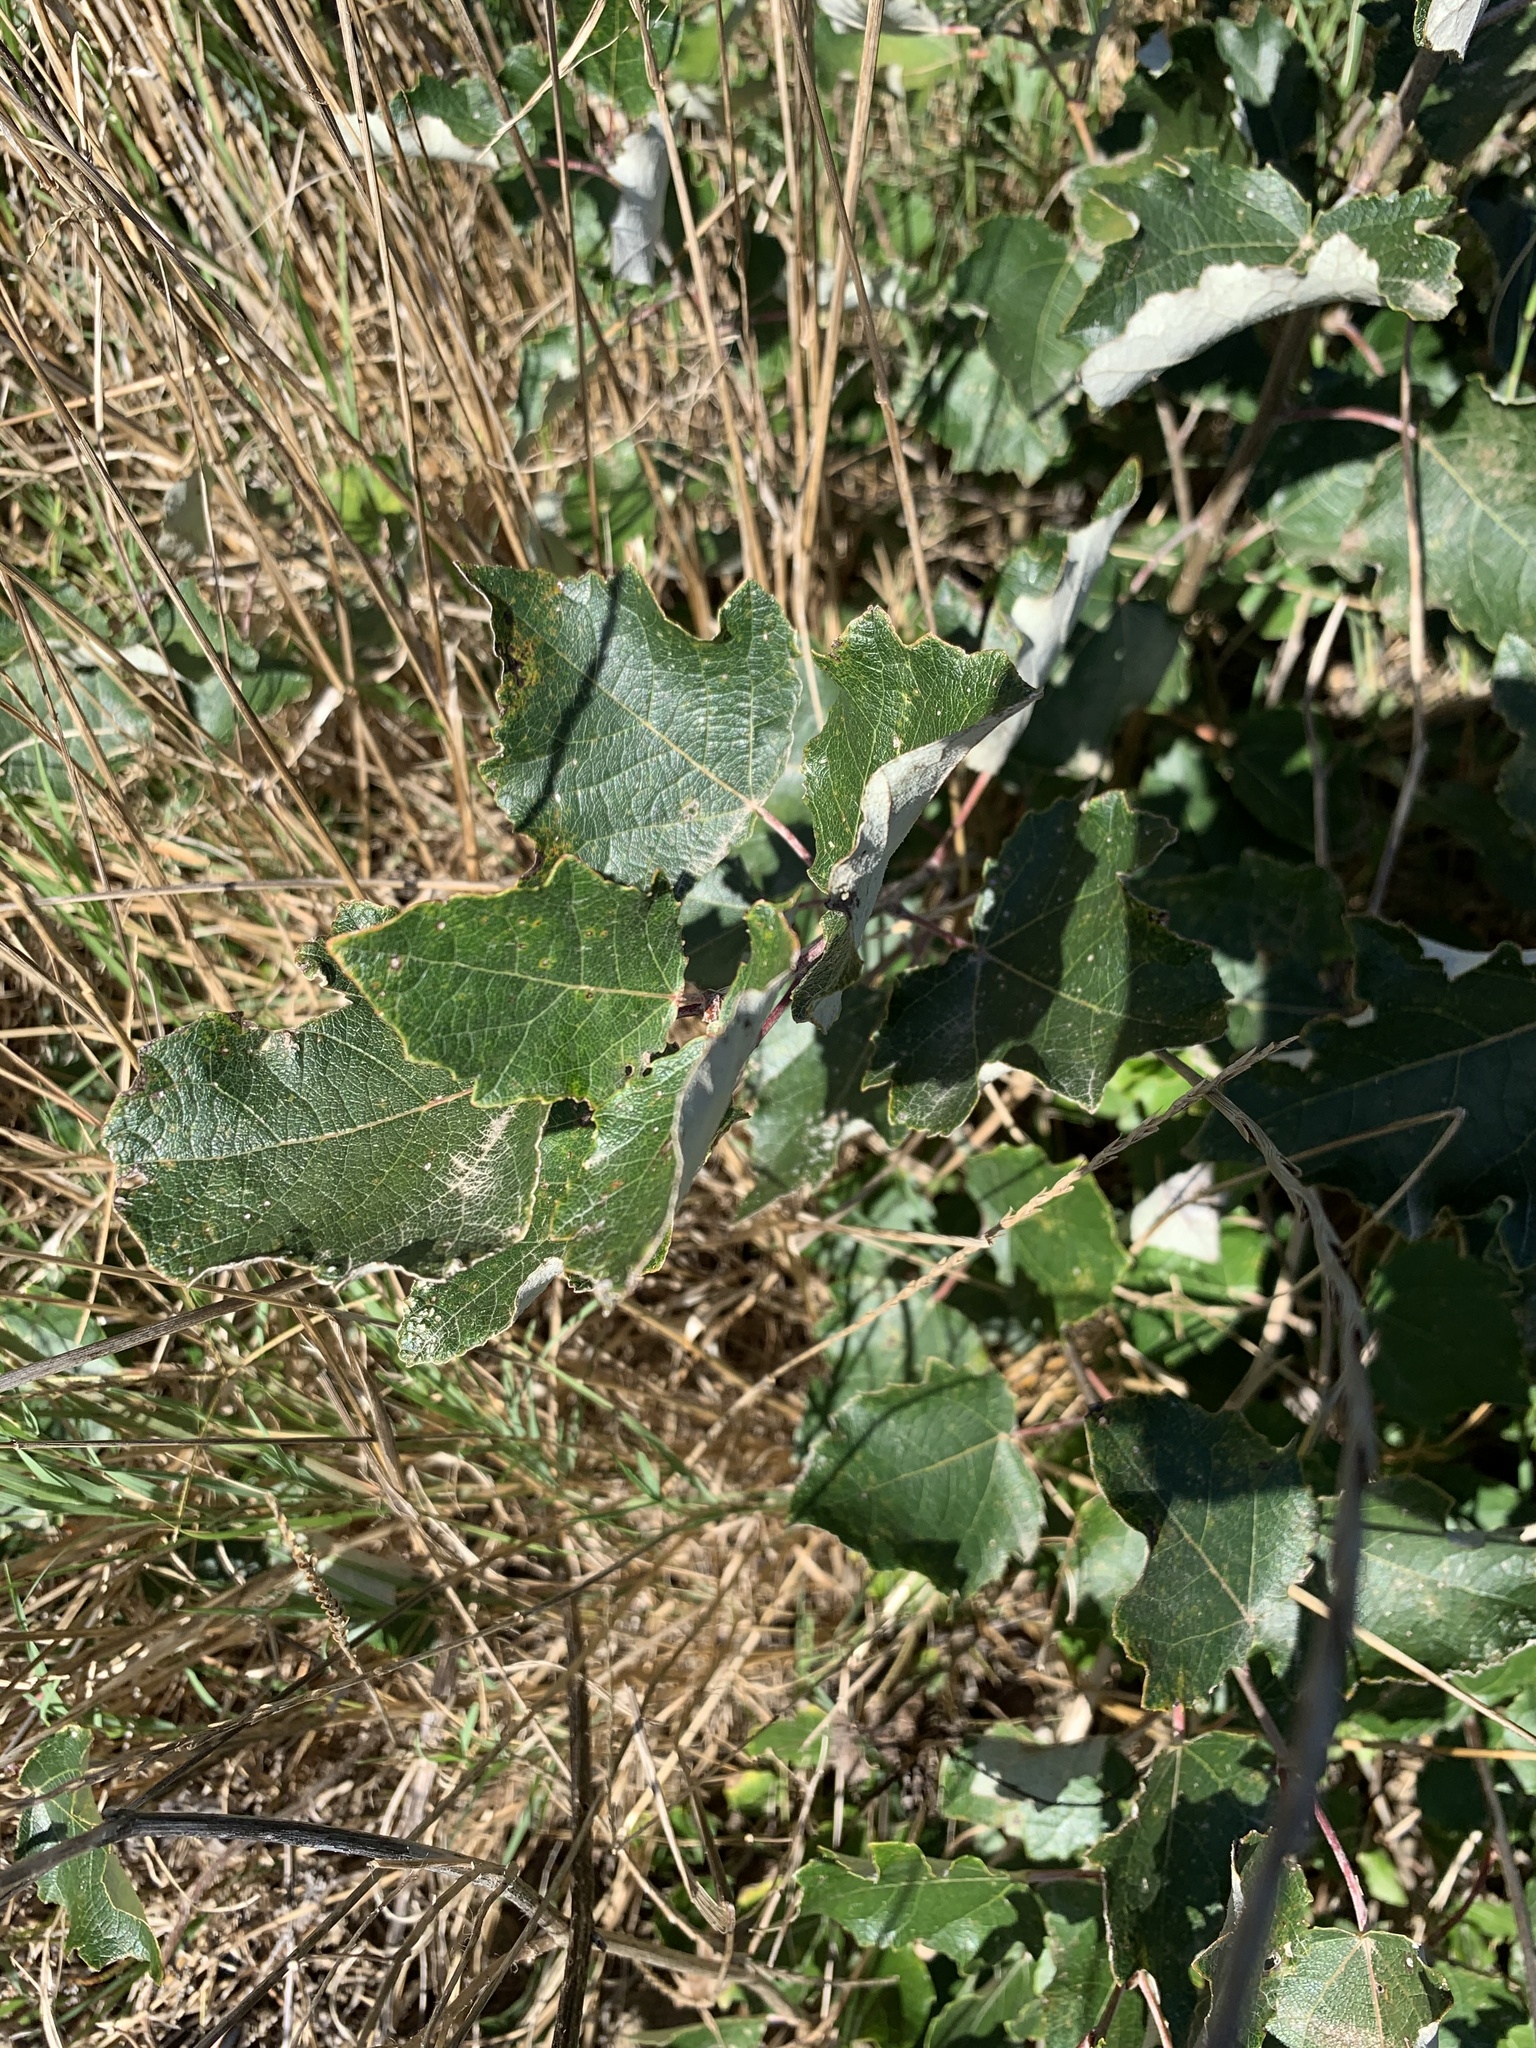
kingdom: Plantae
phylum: Tracheophyta
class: Magnoliopsida
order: Malpighiales
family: Salicaceae
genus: Populus
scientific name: Populus canescens
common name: Gray poplar
